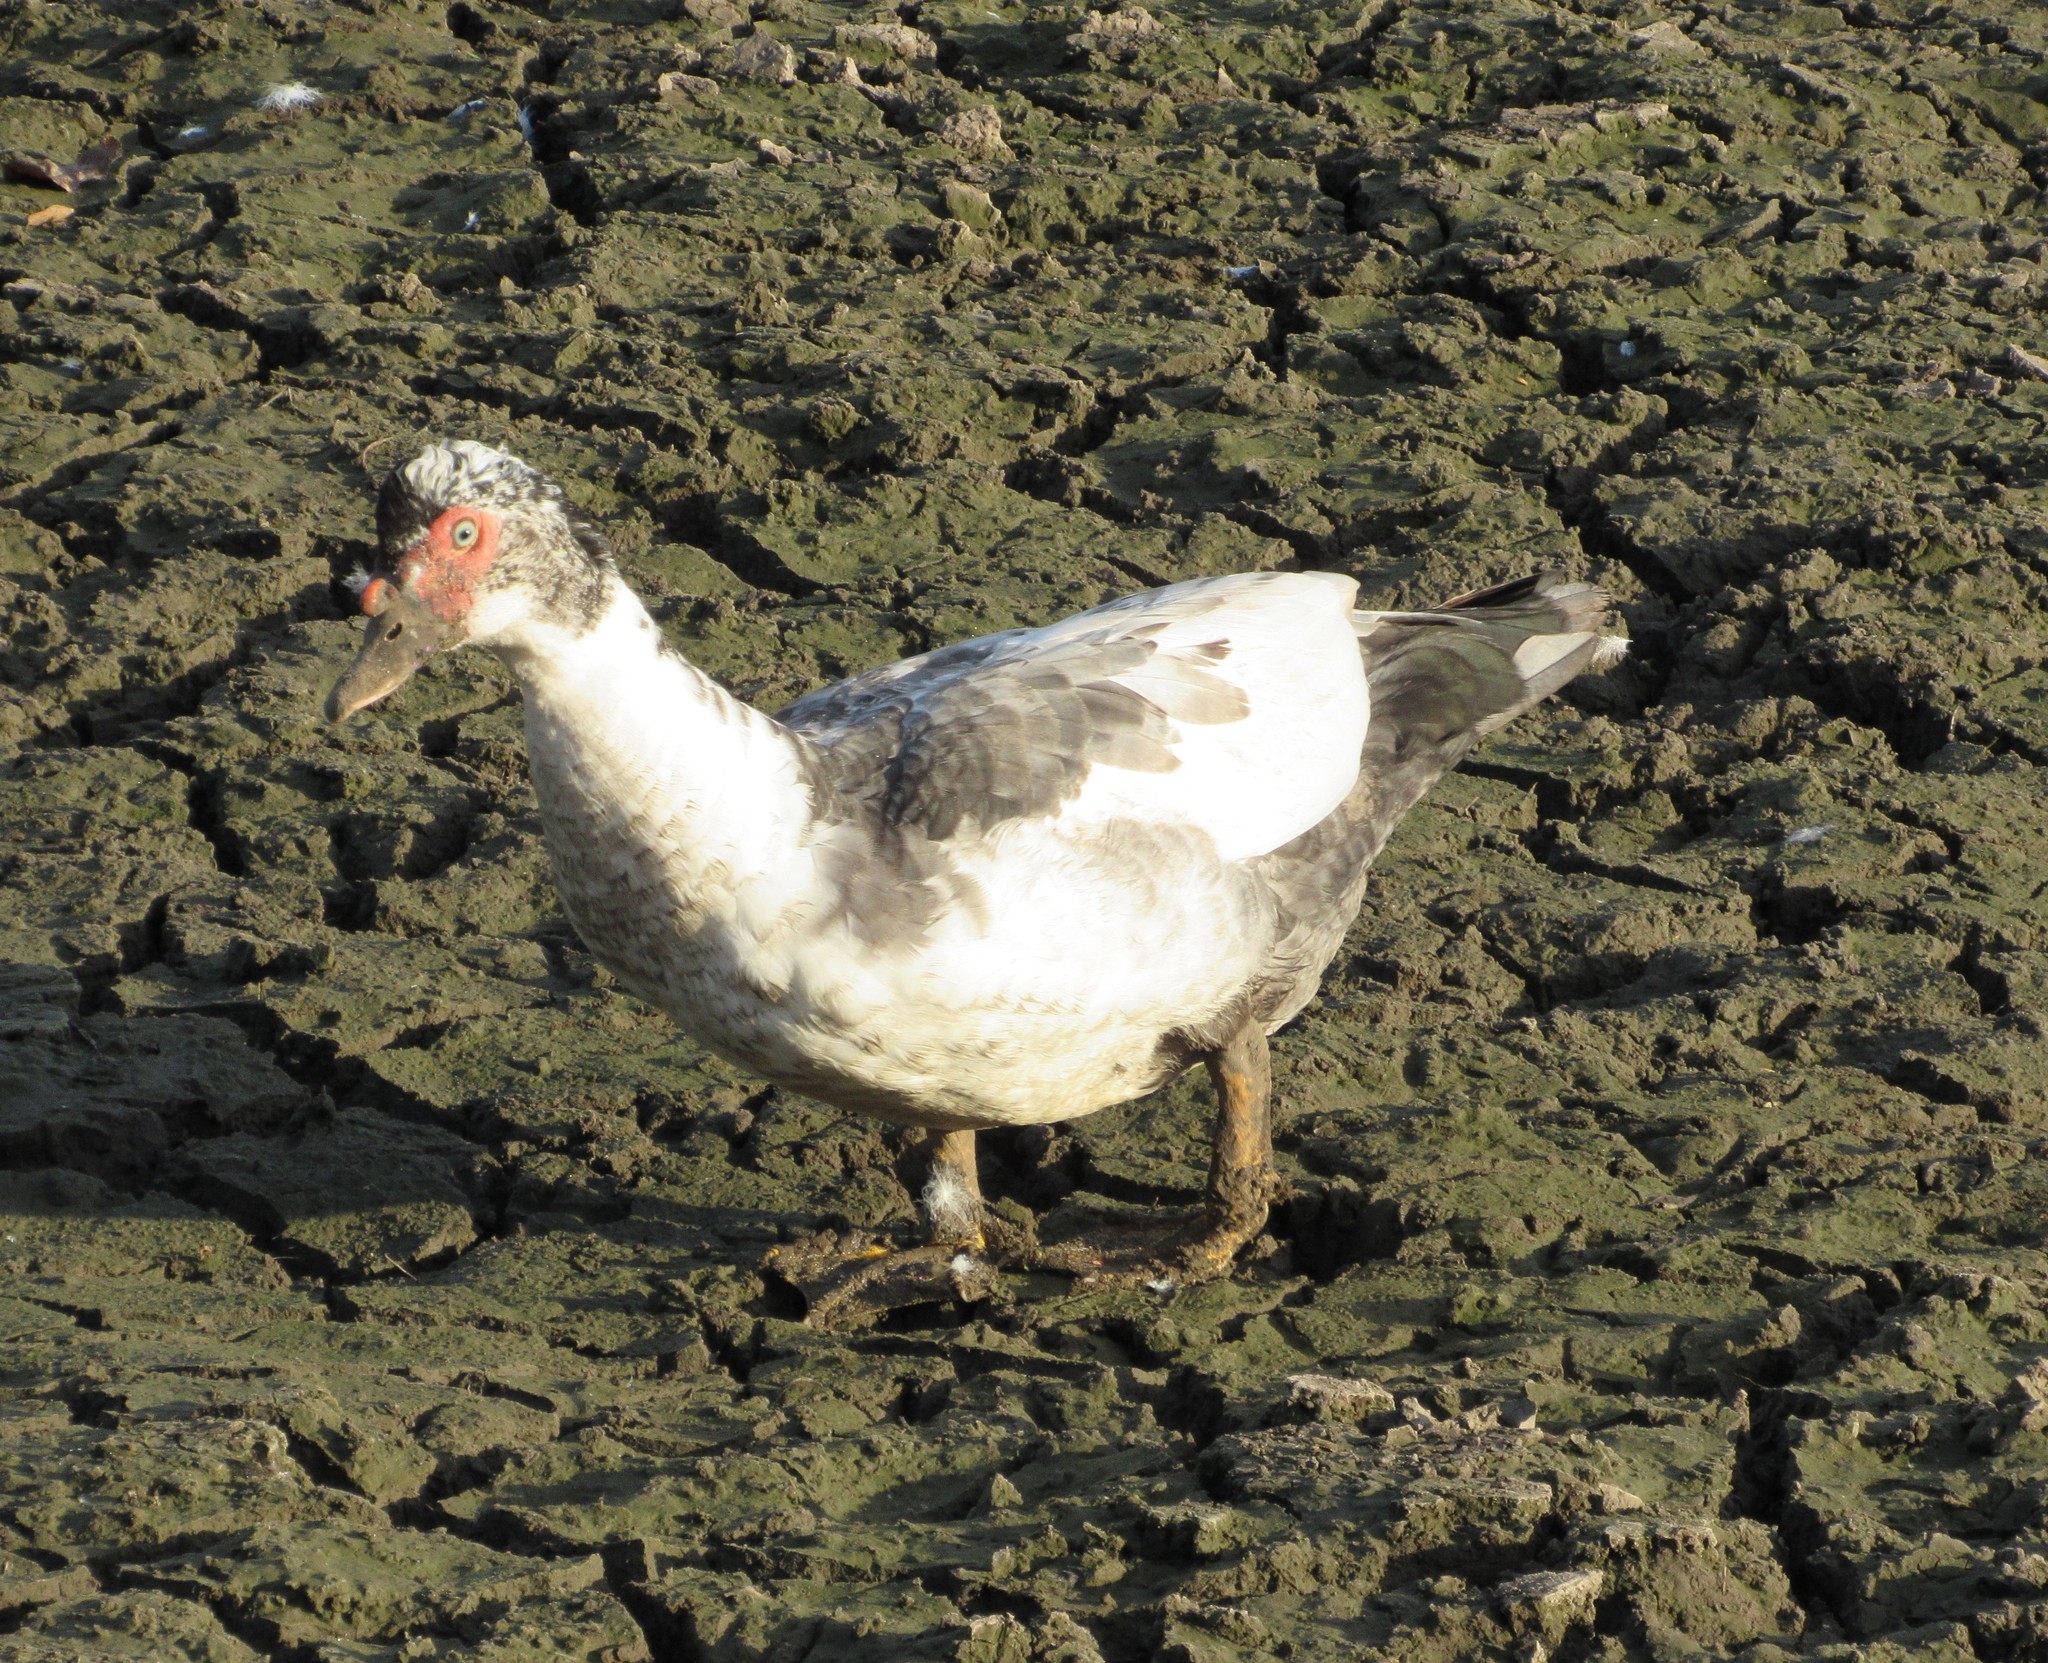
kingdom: Animalia
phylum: Chordata
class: Aves
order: Anseriformes
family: Anatidae
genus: Cairina
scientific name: Cairina moschata
